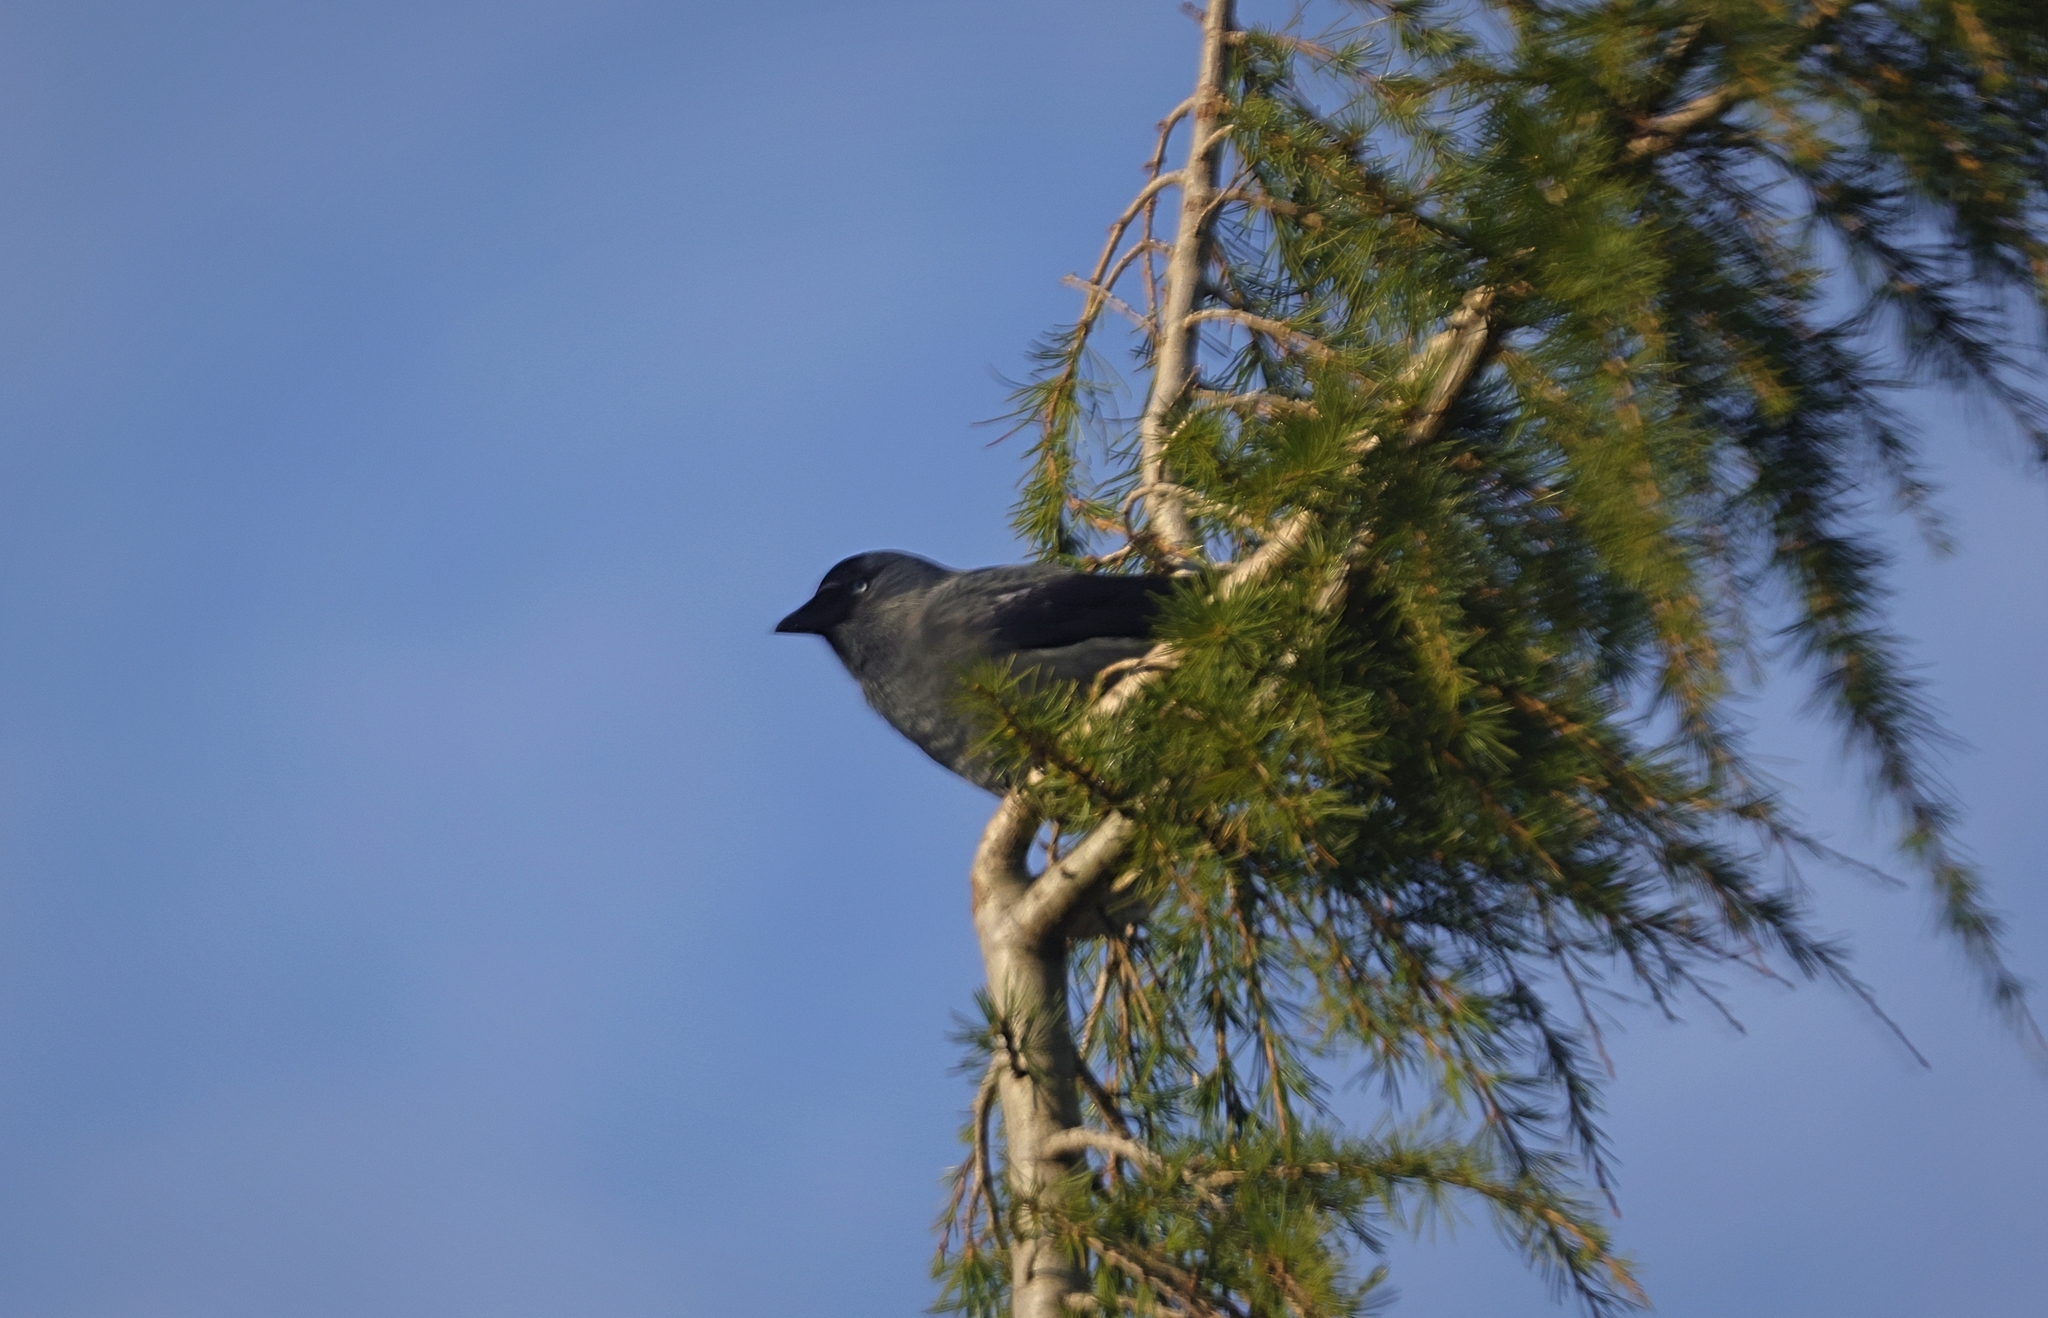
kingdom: Animalia
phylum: Chordata
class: Aves
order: Passeriformes
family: Corvidae
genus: Coloeus
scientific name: Coloeus monedula
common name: Western jackdaw
